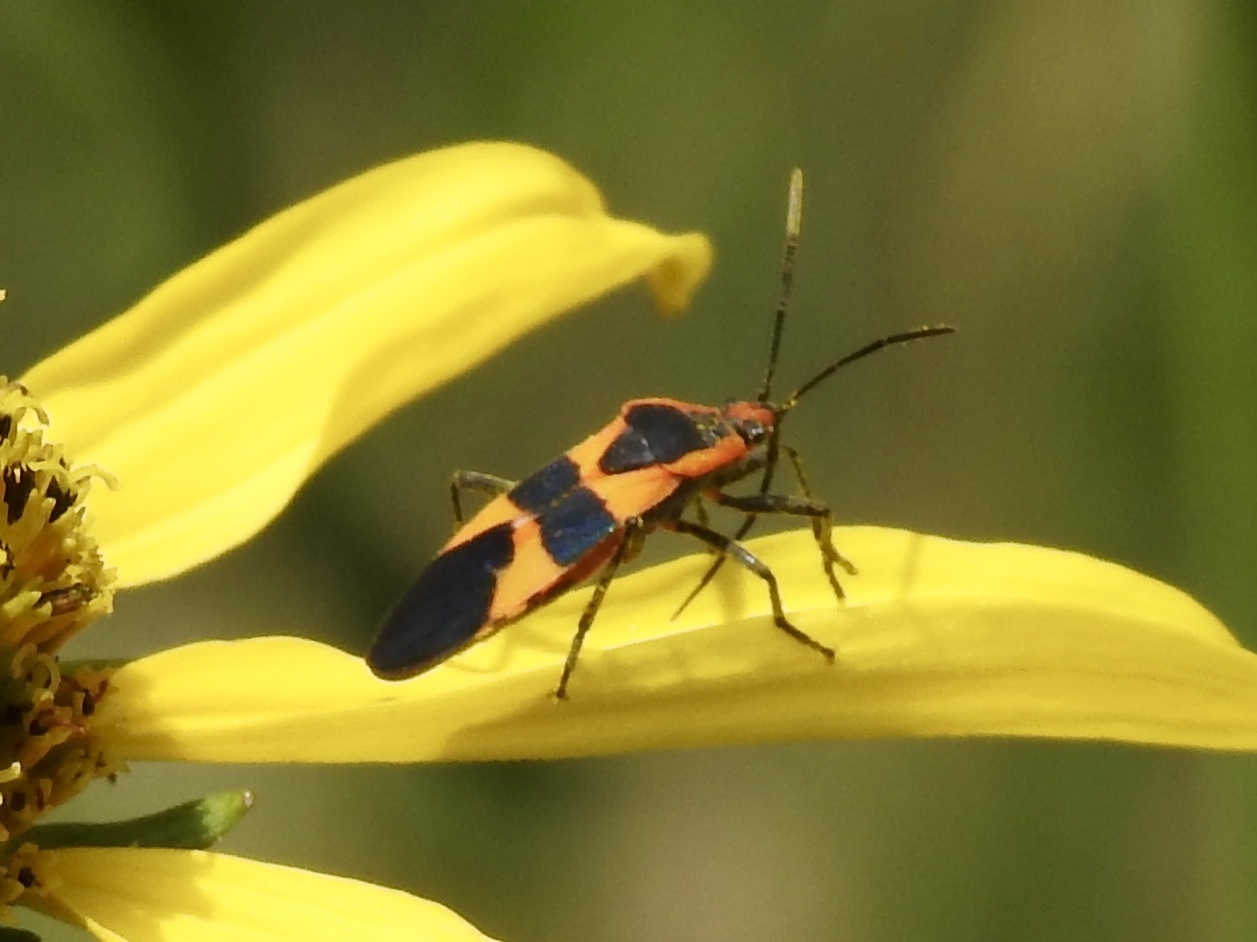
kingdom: Animalia
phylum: Arthropoda
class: Insecta
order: Hemiptera
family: Lygaeidae
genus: Oncopeltus
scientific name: Oncopeltus fasciatus
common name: Large milkweed bug
